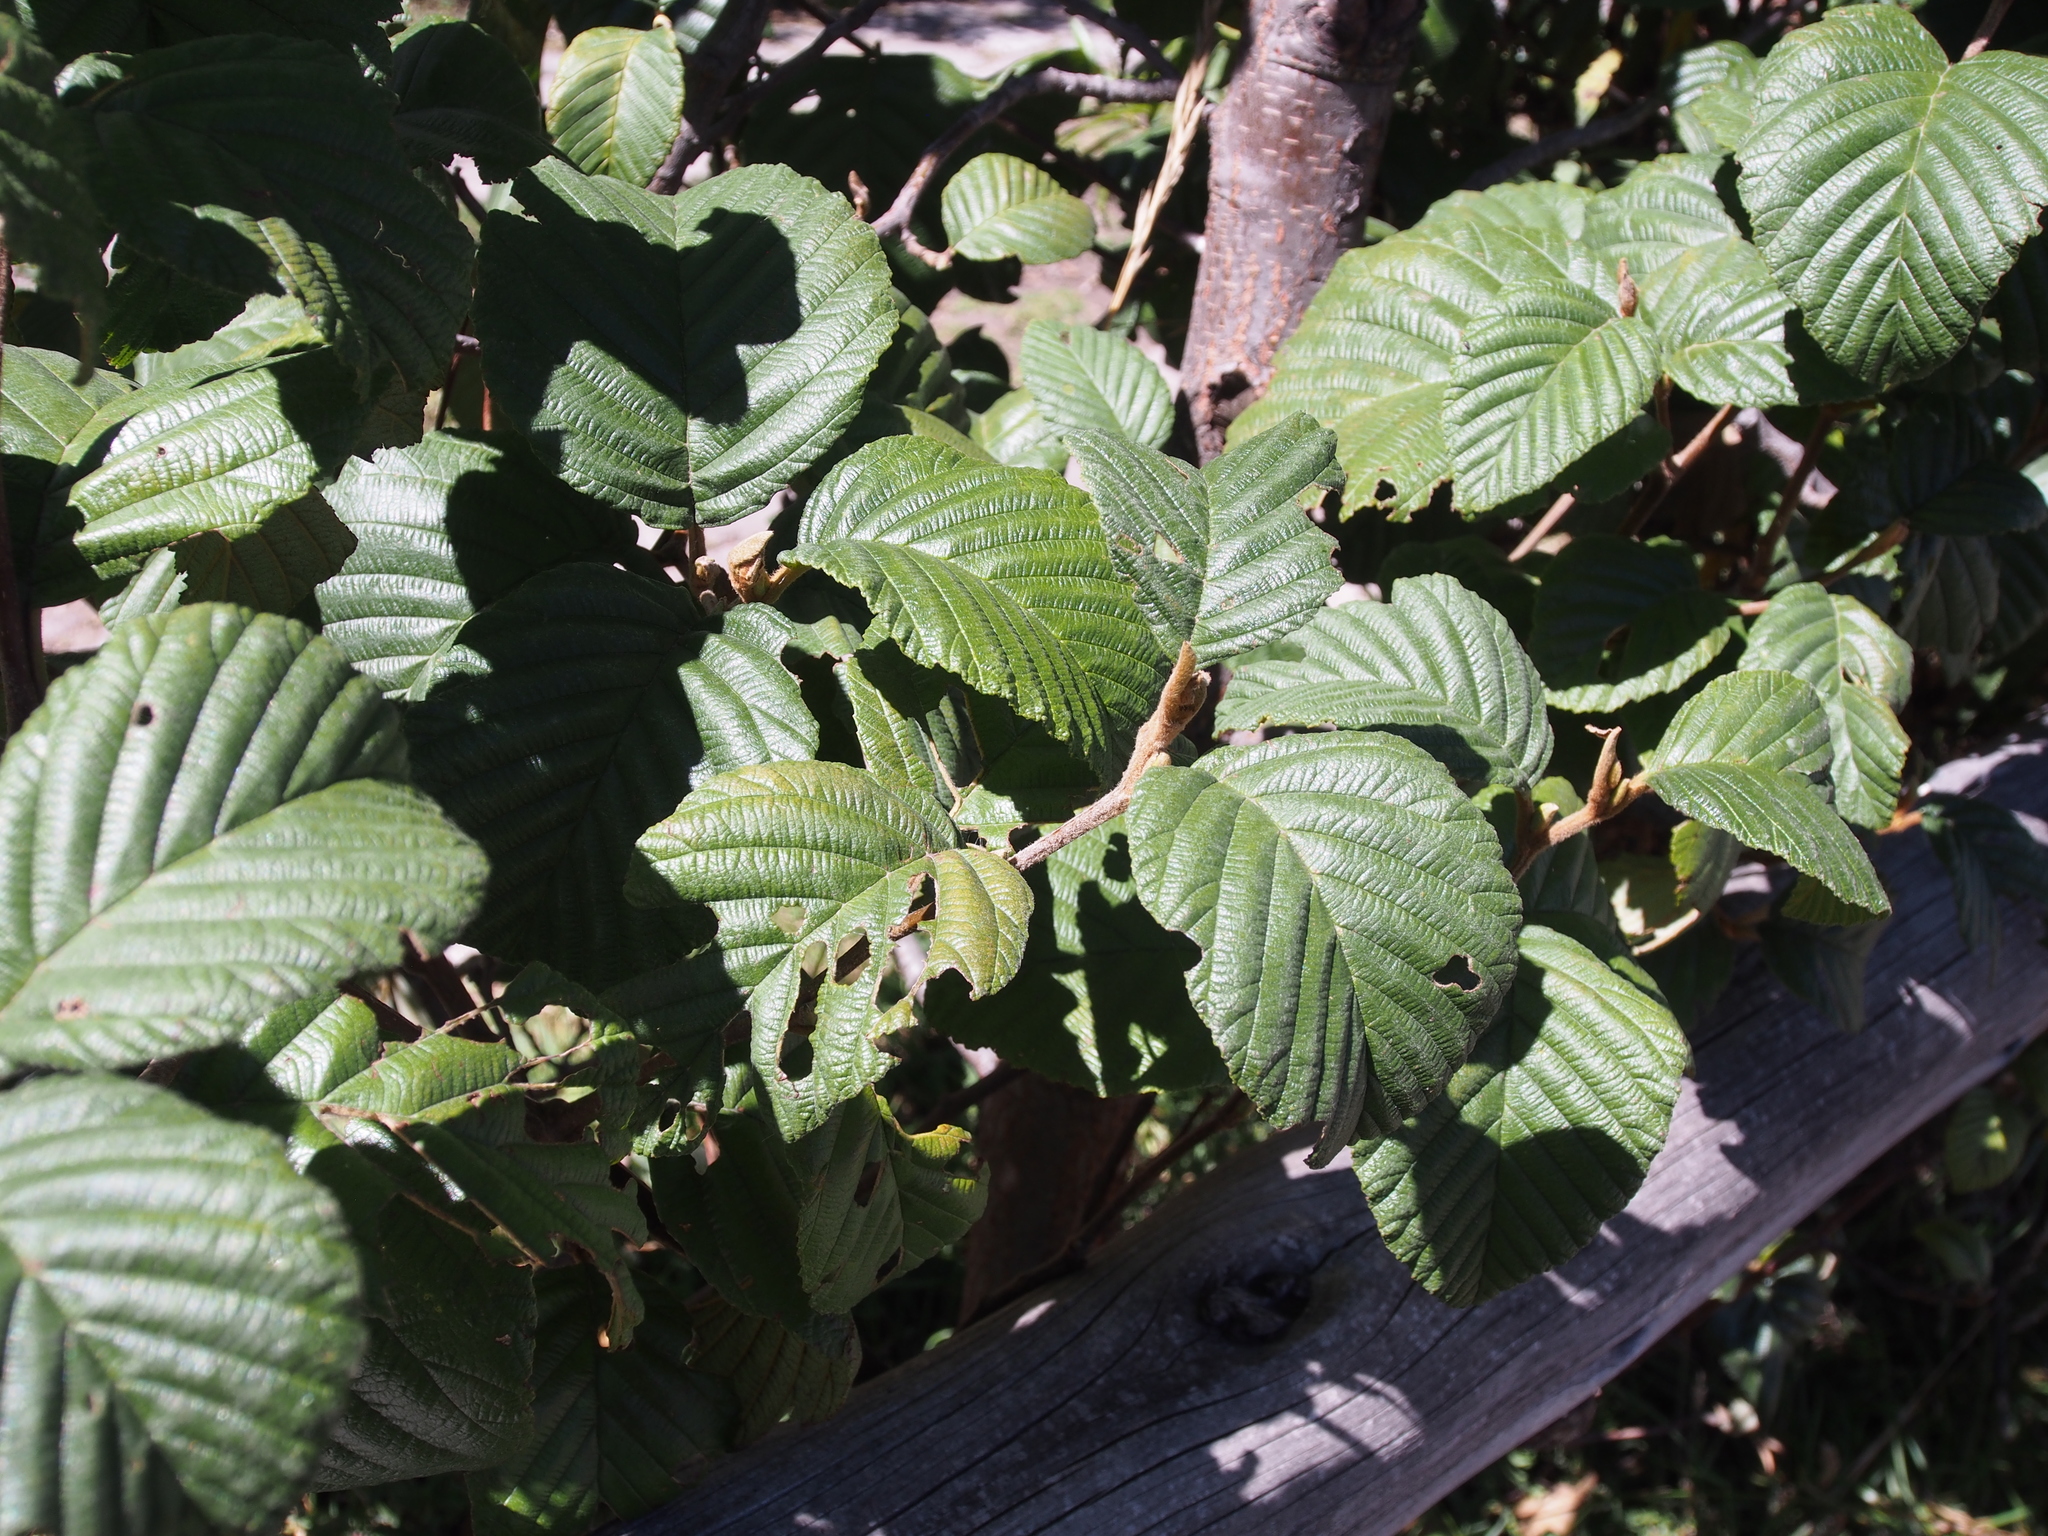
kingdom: Plantae
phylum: Tracheophyta
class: Magnoliopsida
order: Fagales
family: Betulaceae
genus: Alnus
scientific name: Alnus acuminata
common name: Alder
